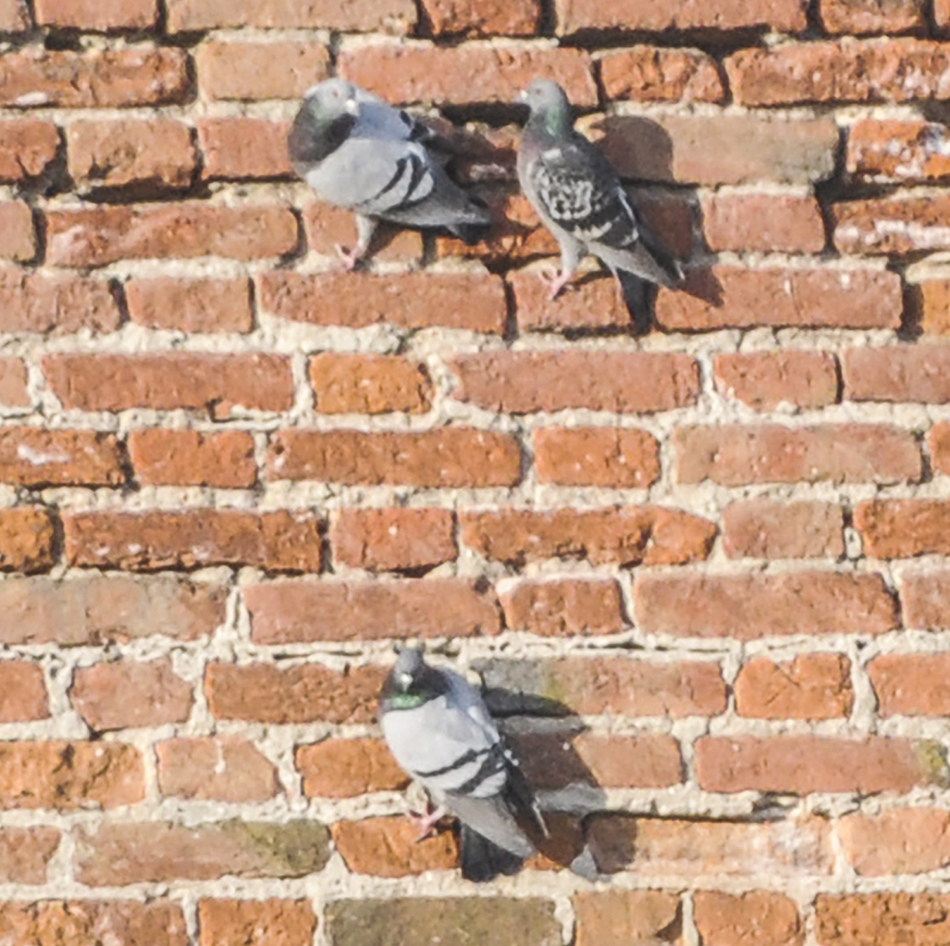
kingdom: Animalia
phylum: Chordata
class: Aves
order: Columbiformes
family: Columbidae
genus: Columba
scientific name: Columba livia
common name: Rock pigeon
